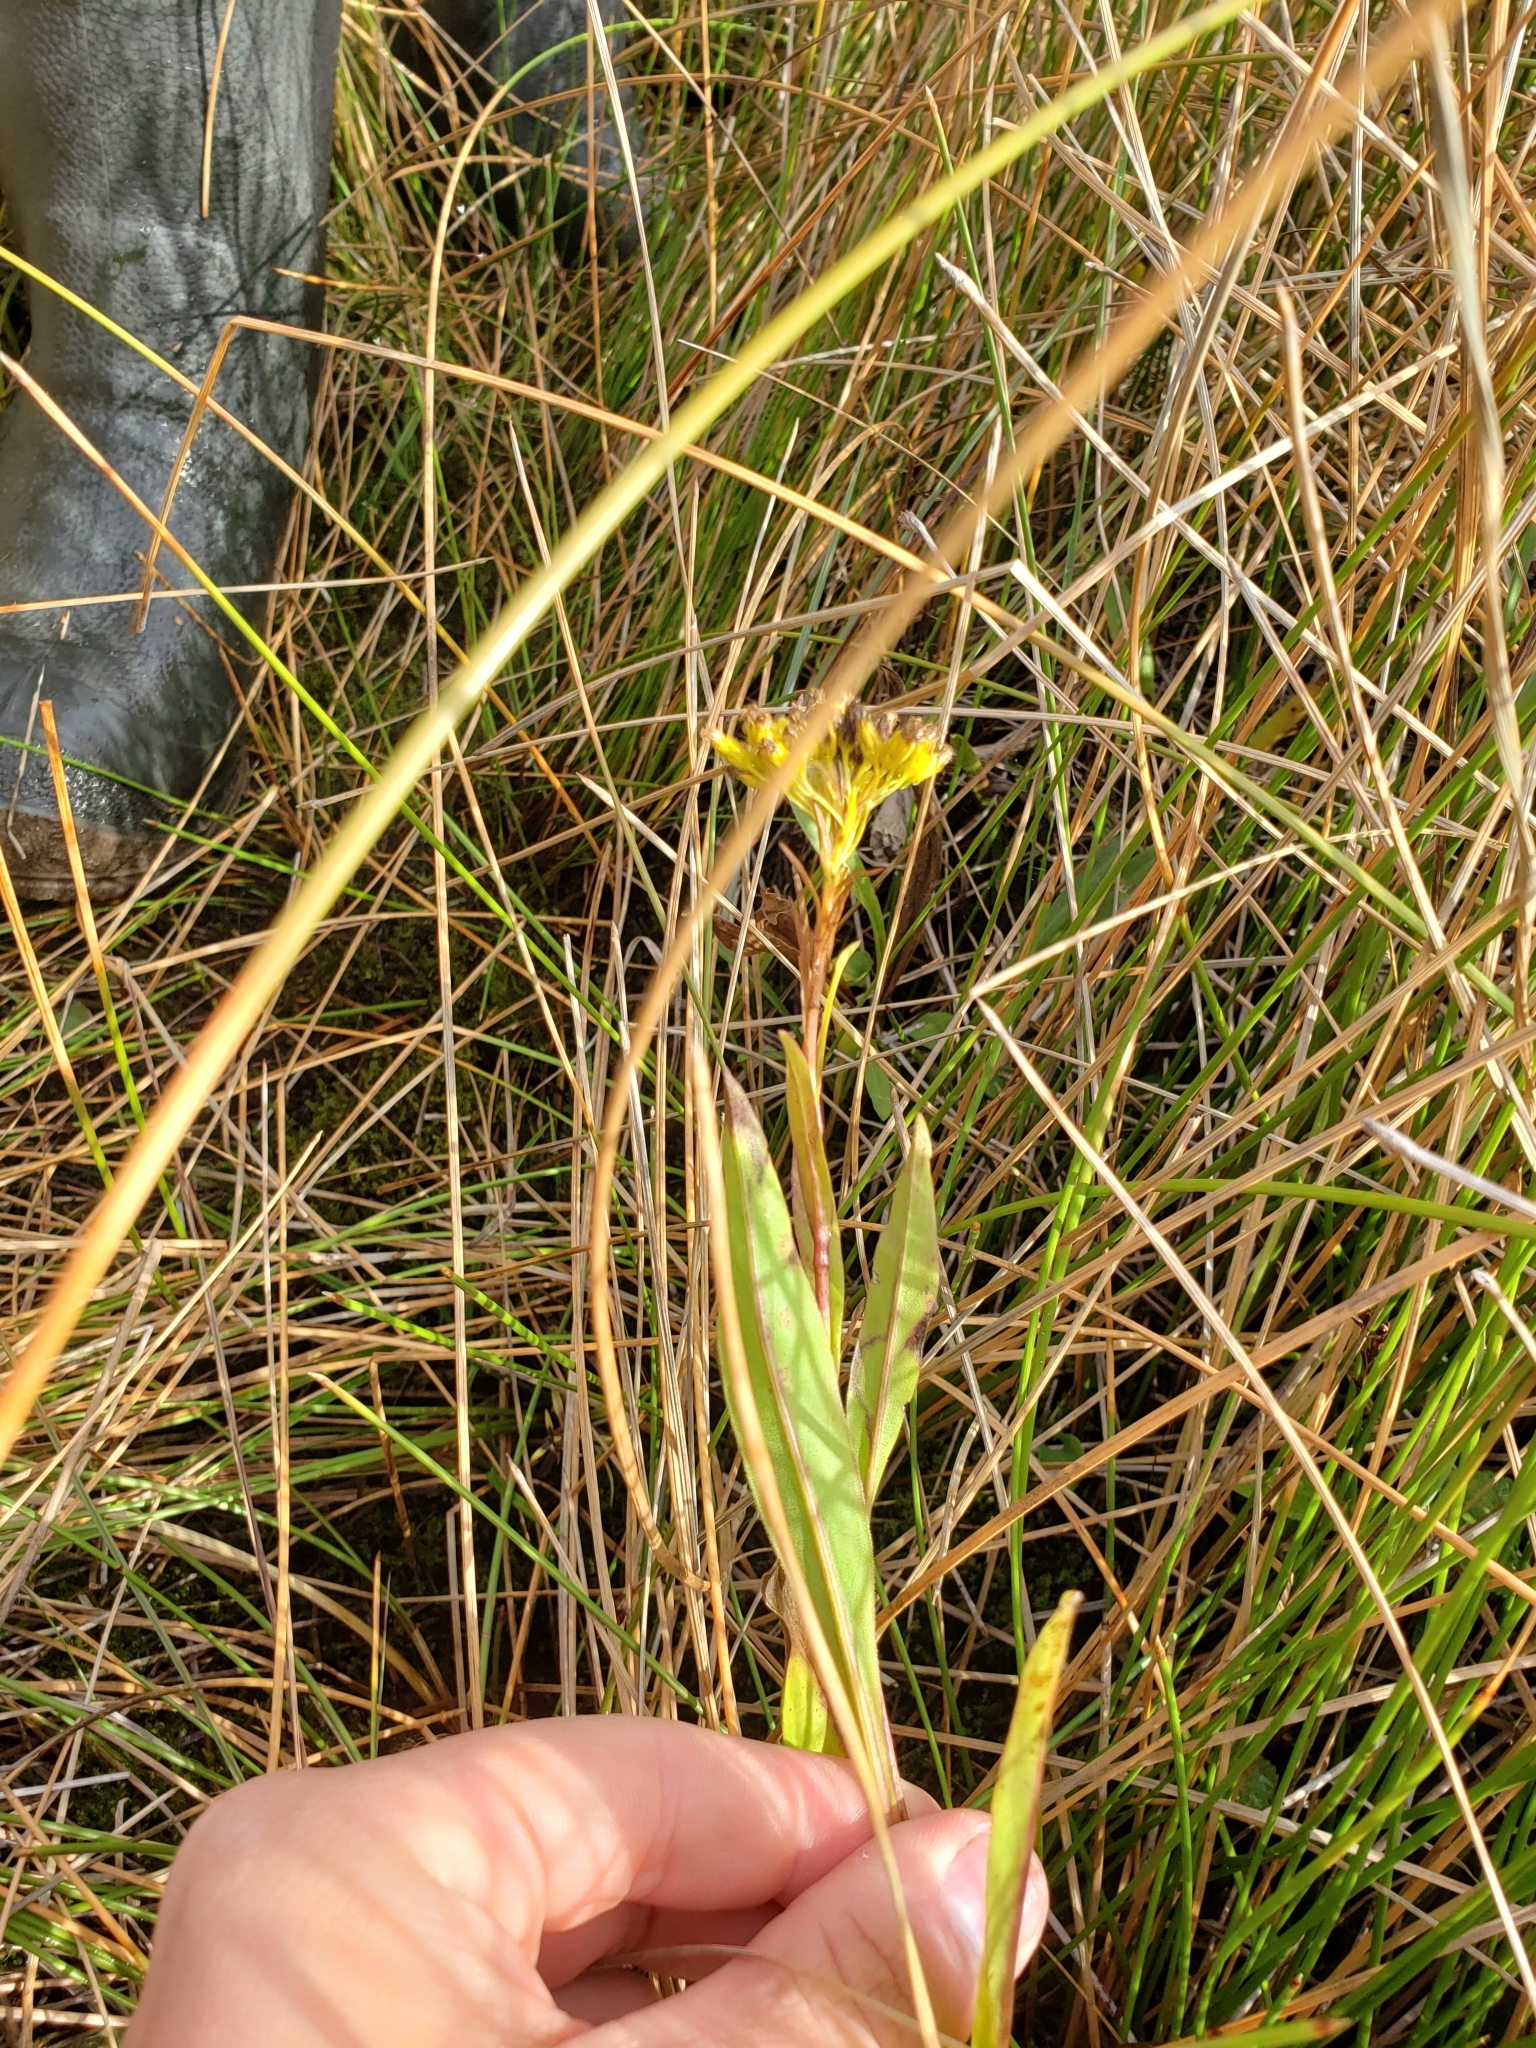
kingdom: Plantae
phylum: Tracheophyta
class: Magnoliopsida
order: Asterales
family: Asteraceae
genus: Solidago
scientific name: Solidago ohioensis
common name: Ohio goldenrod
